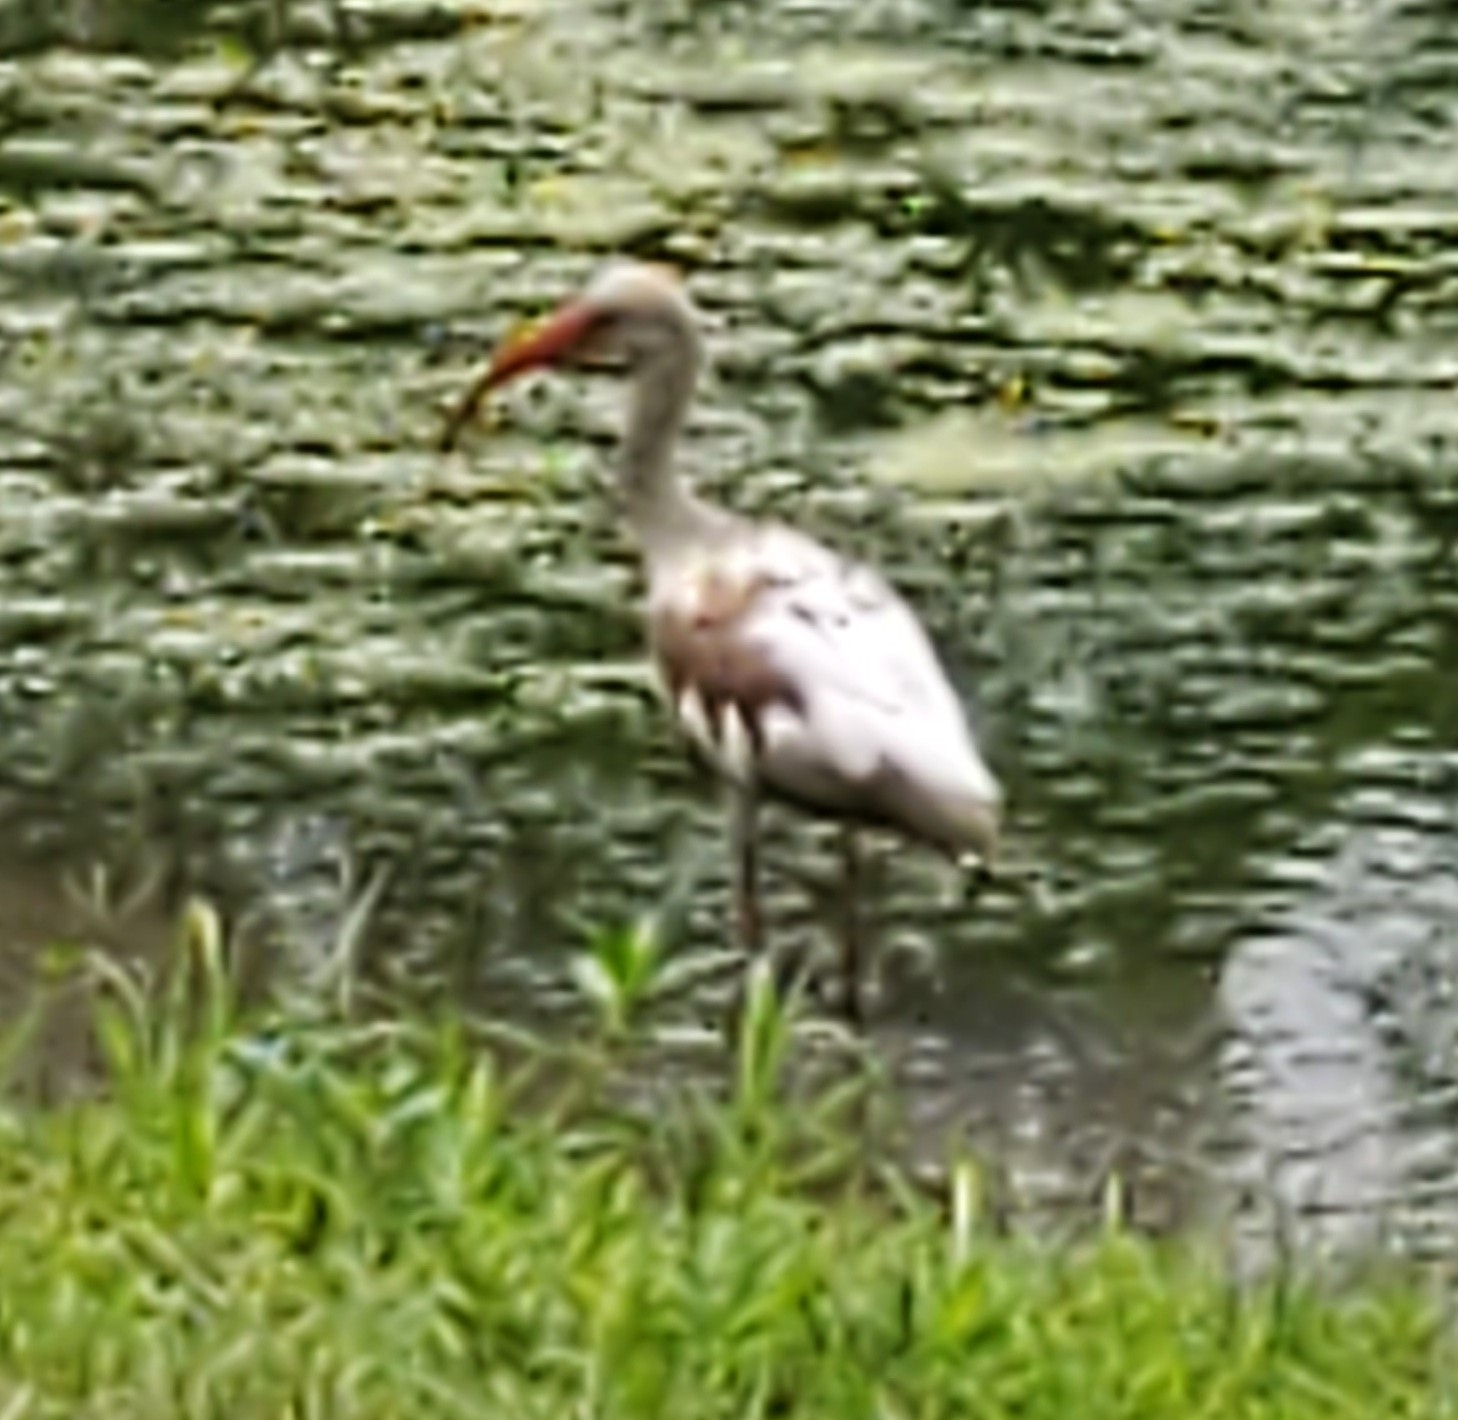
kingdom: Animalia
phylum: Chordata
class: Aves
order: Pelecaniformes
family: Threskiornithidae
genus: Eudocimus
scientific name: Eudocimus albus
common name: White ibis
